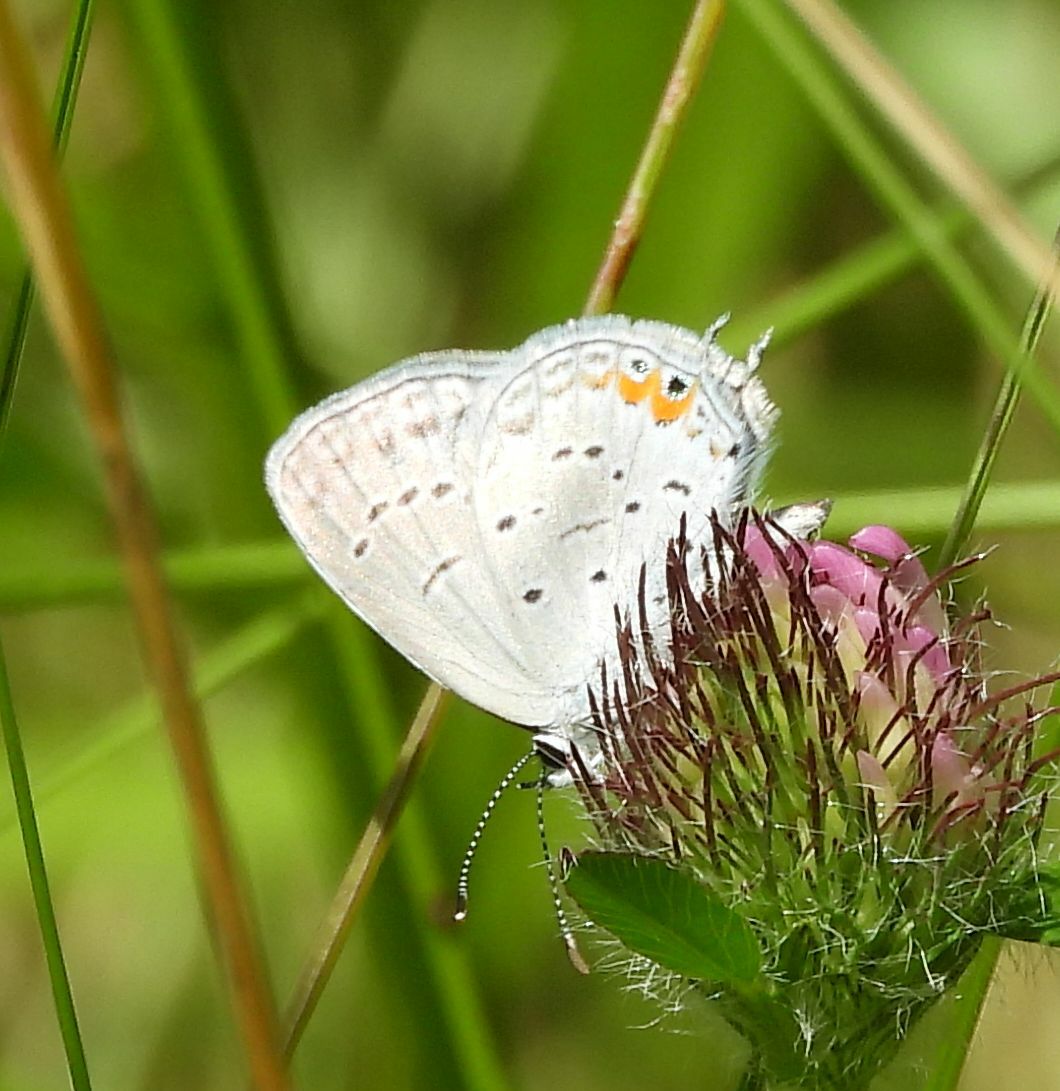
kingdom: Animalia
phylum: Arthropoda
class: Insecta
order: Lepidoptera
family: Lycaenidae
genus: Elkalyce
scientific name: Elkalyce comyntas
